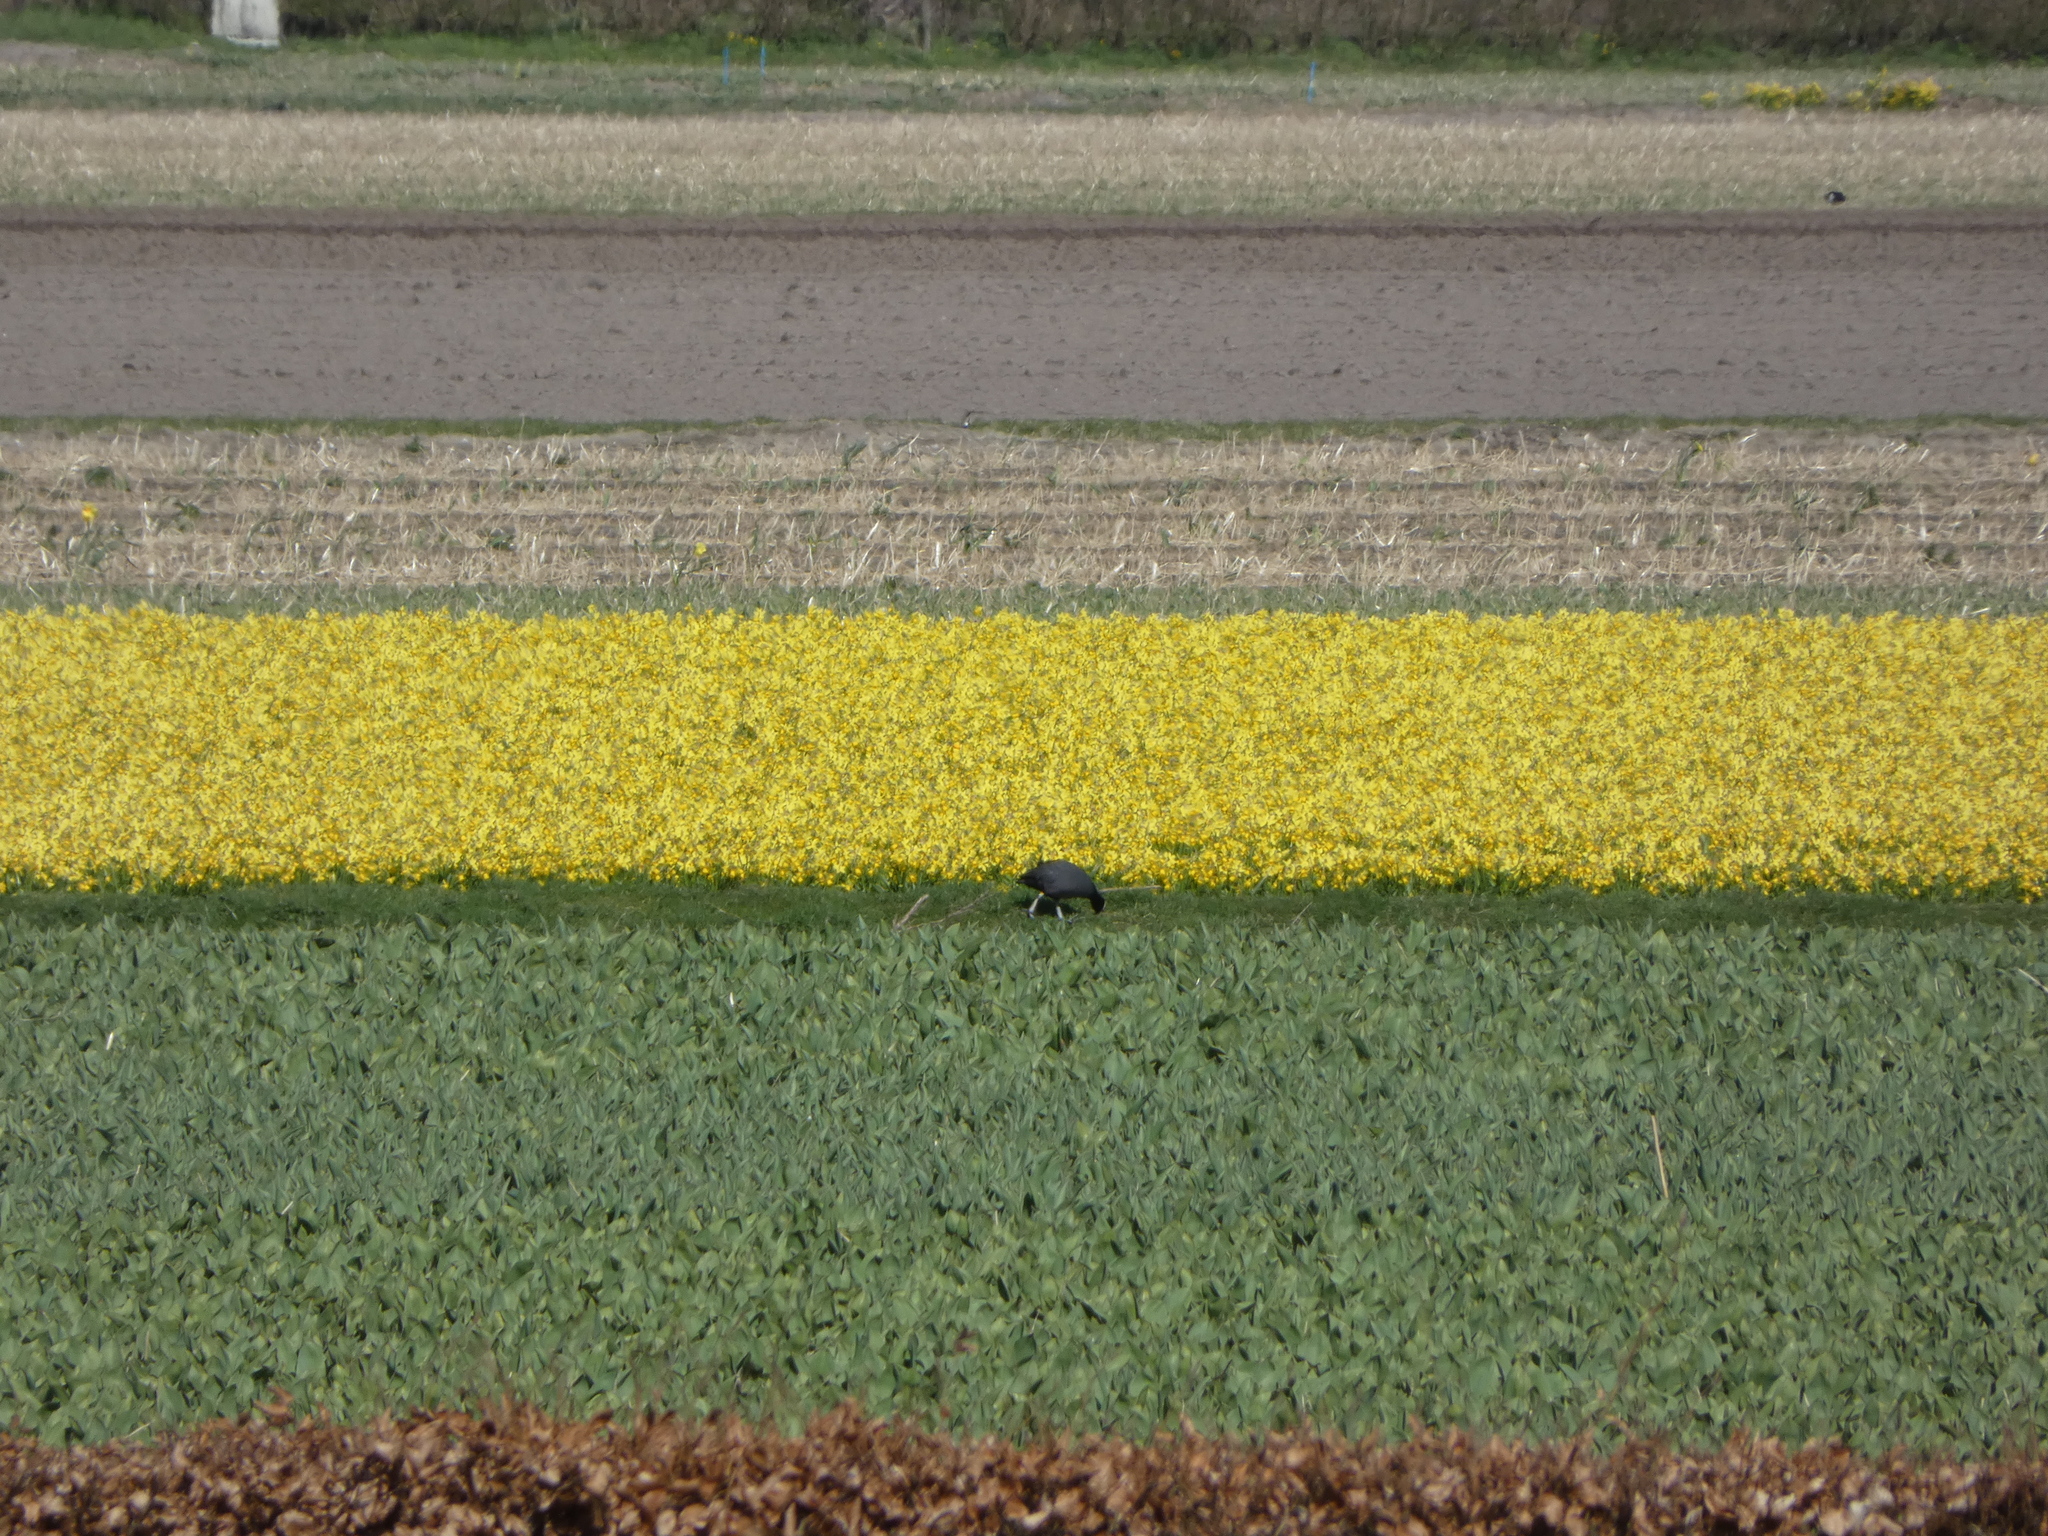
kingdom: Animalia
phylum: Chordata
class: Aves
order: Gruiformes
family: Rallidae
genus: Fulica
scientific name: Fulica atra
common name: Eurasian coot
